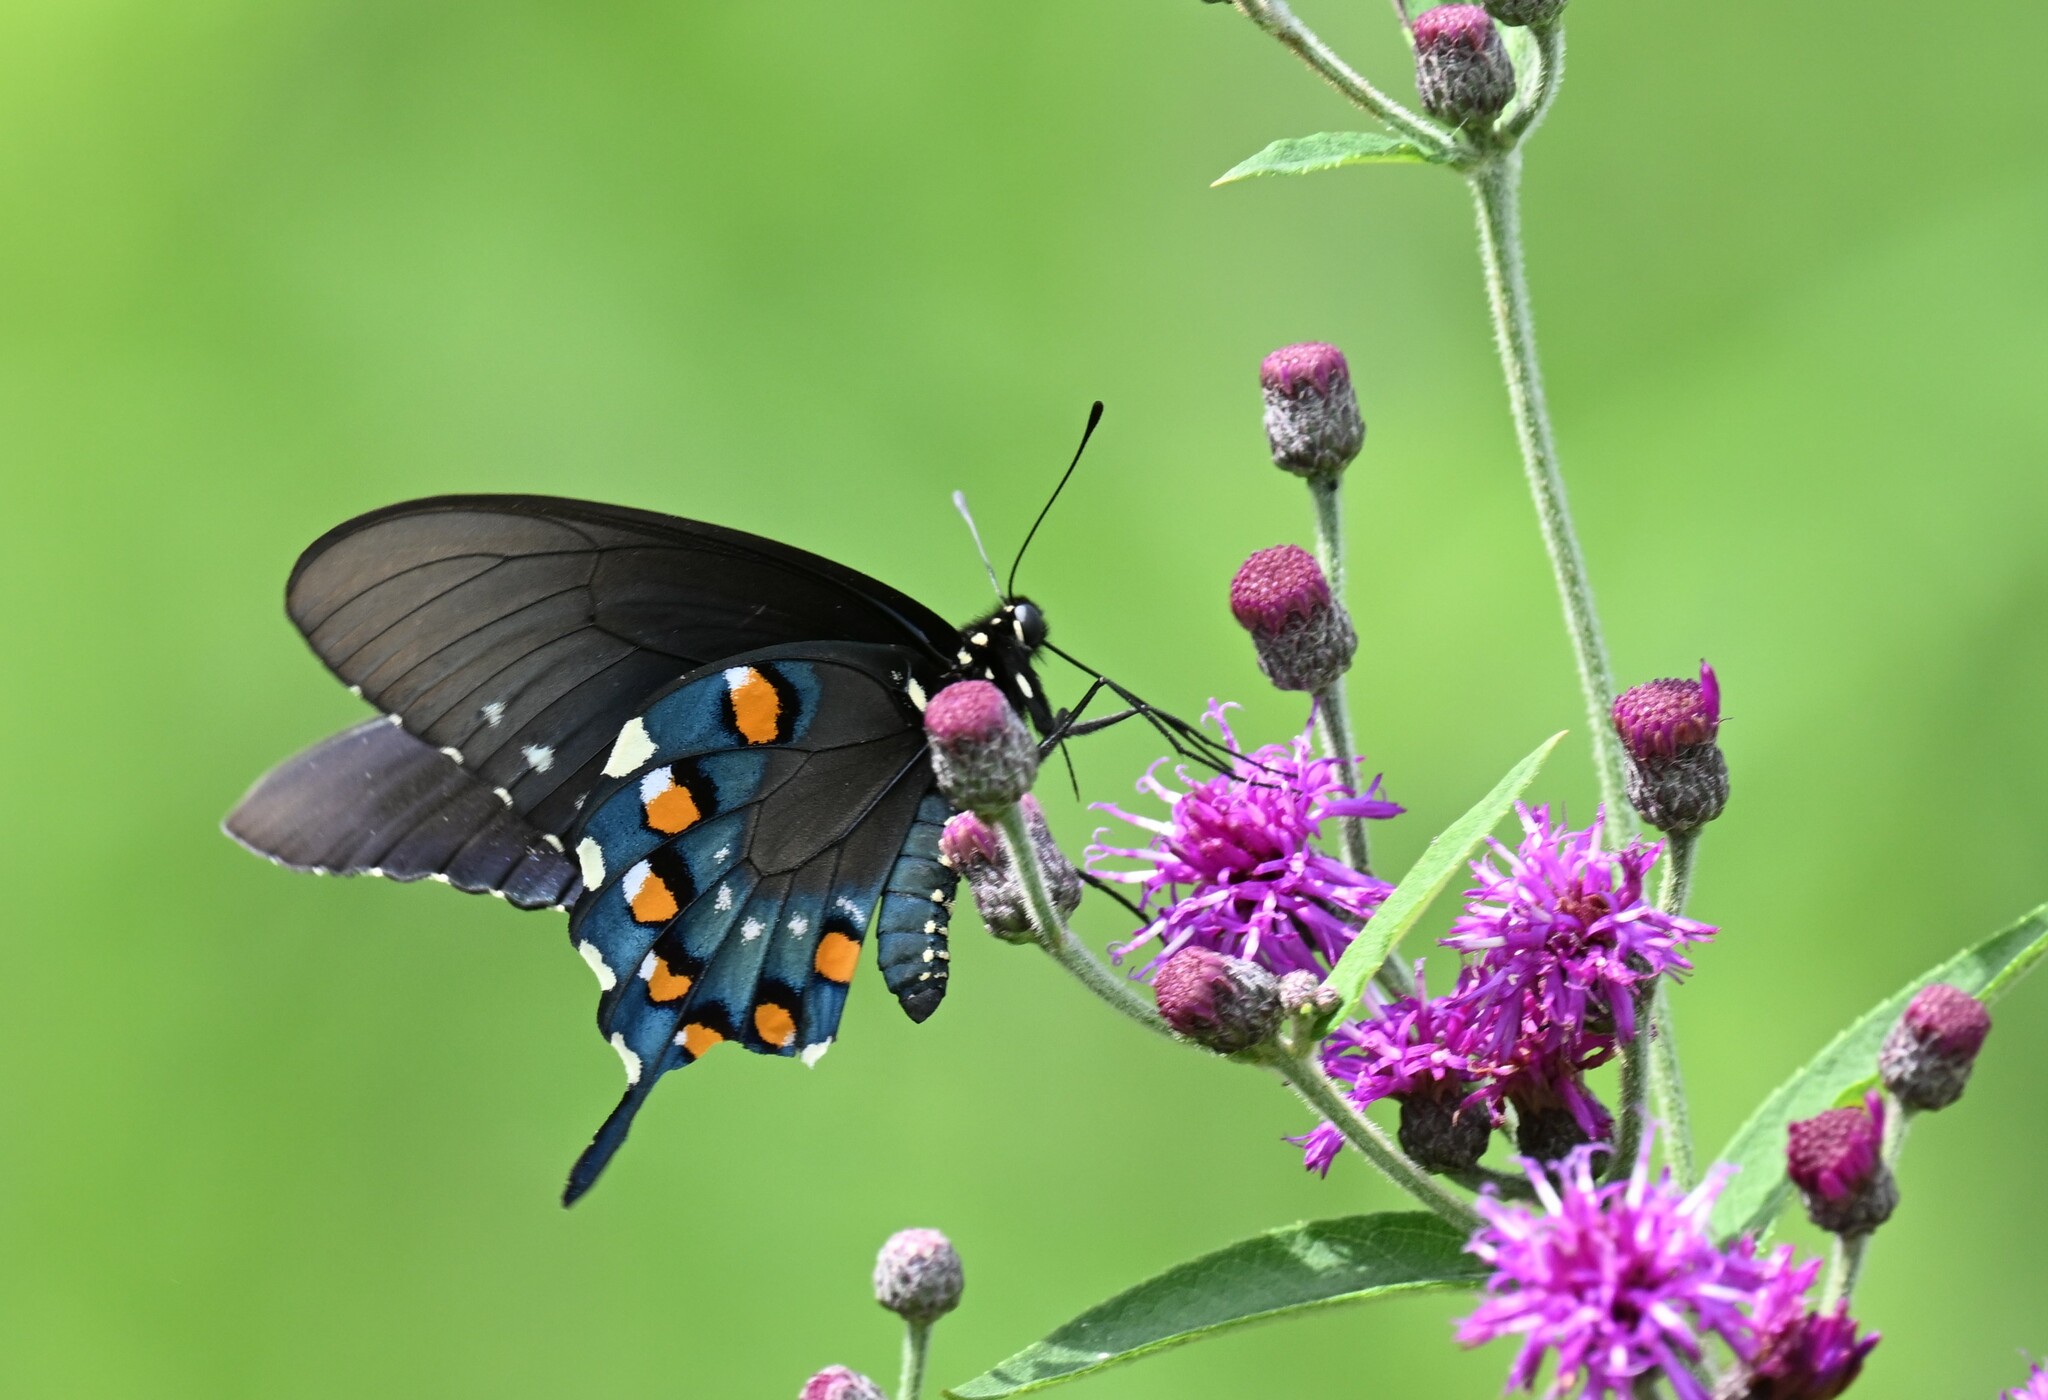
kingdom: Animalia
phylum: Arthropoda
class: Insecta
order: Lepidoptera
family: Papilionidae
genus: Battus
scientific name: Battus philenor
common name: Pipevine swallowtail
